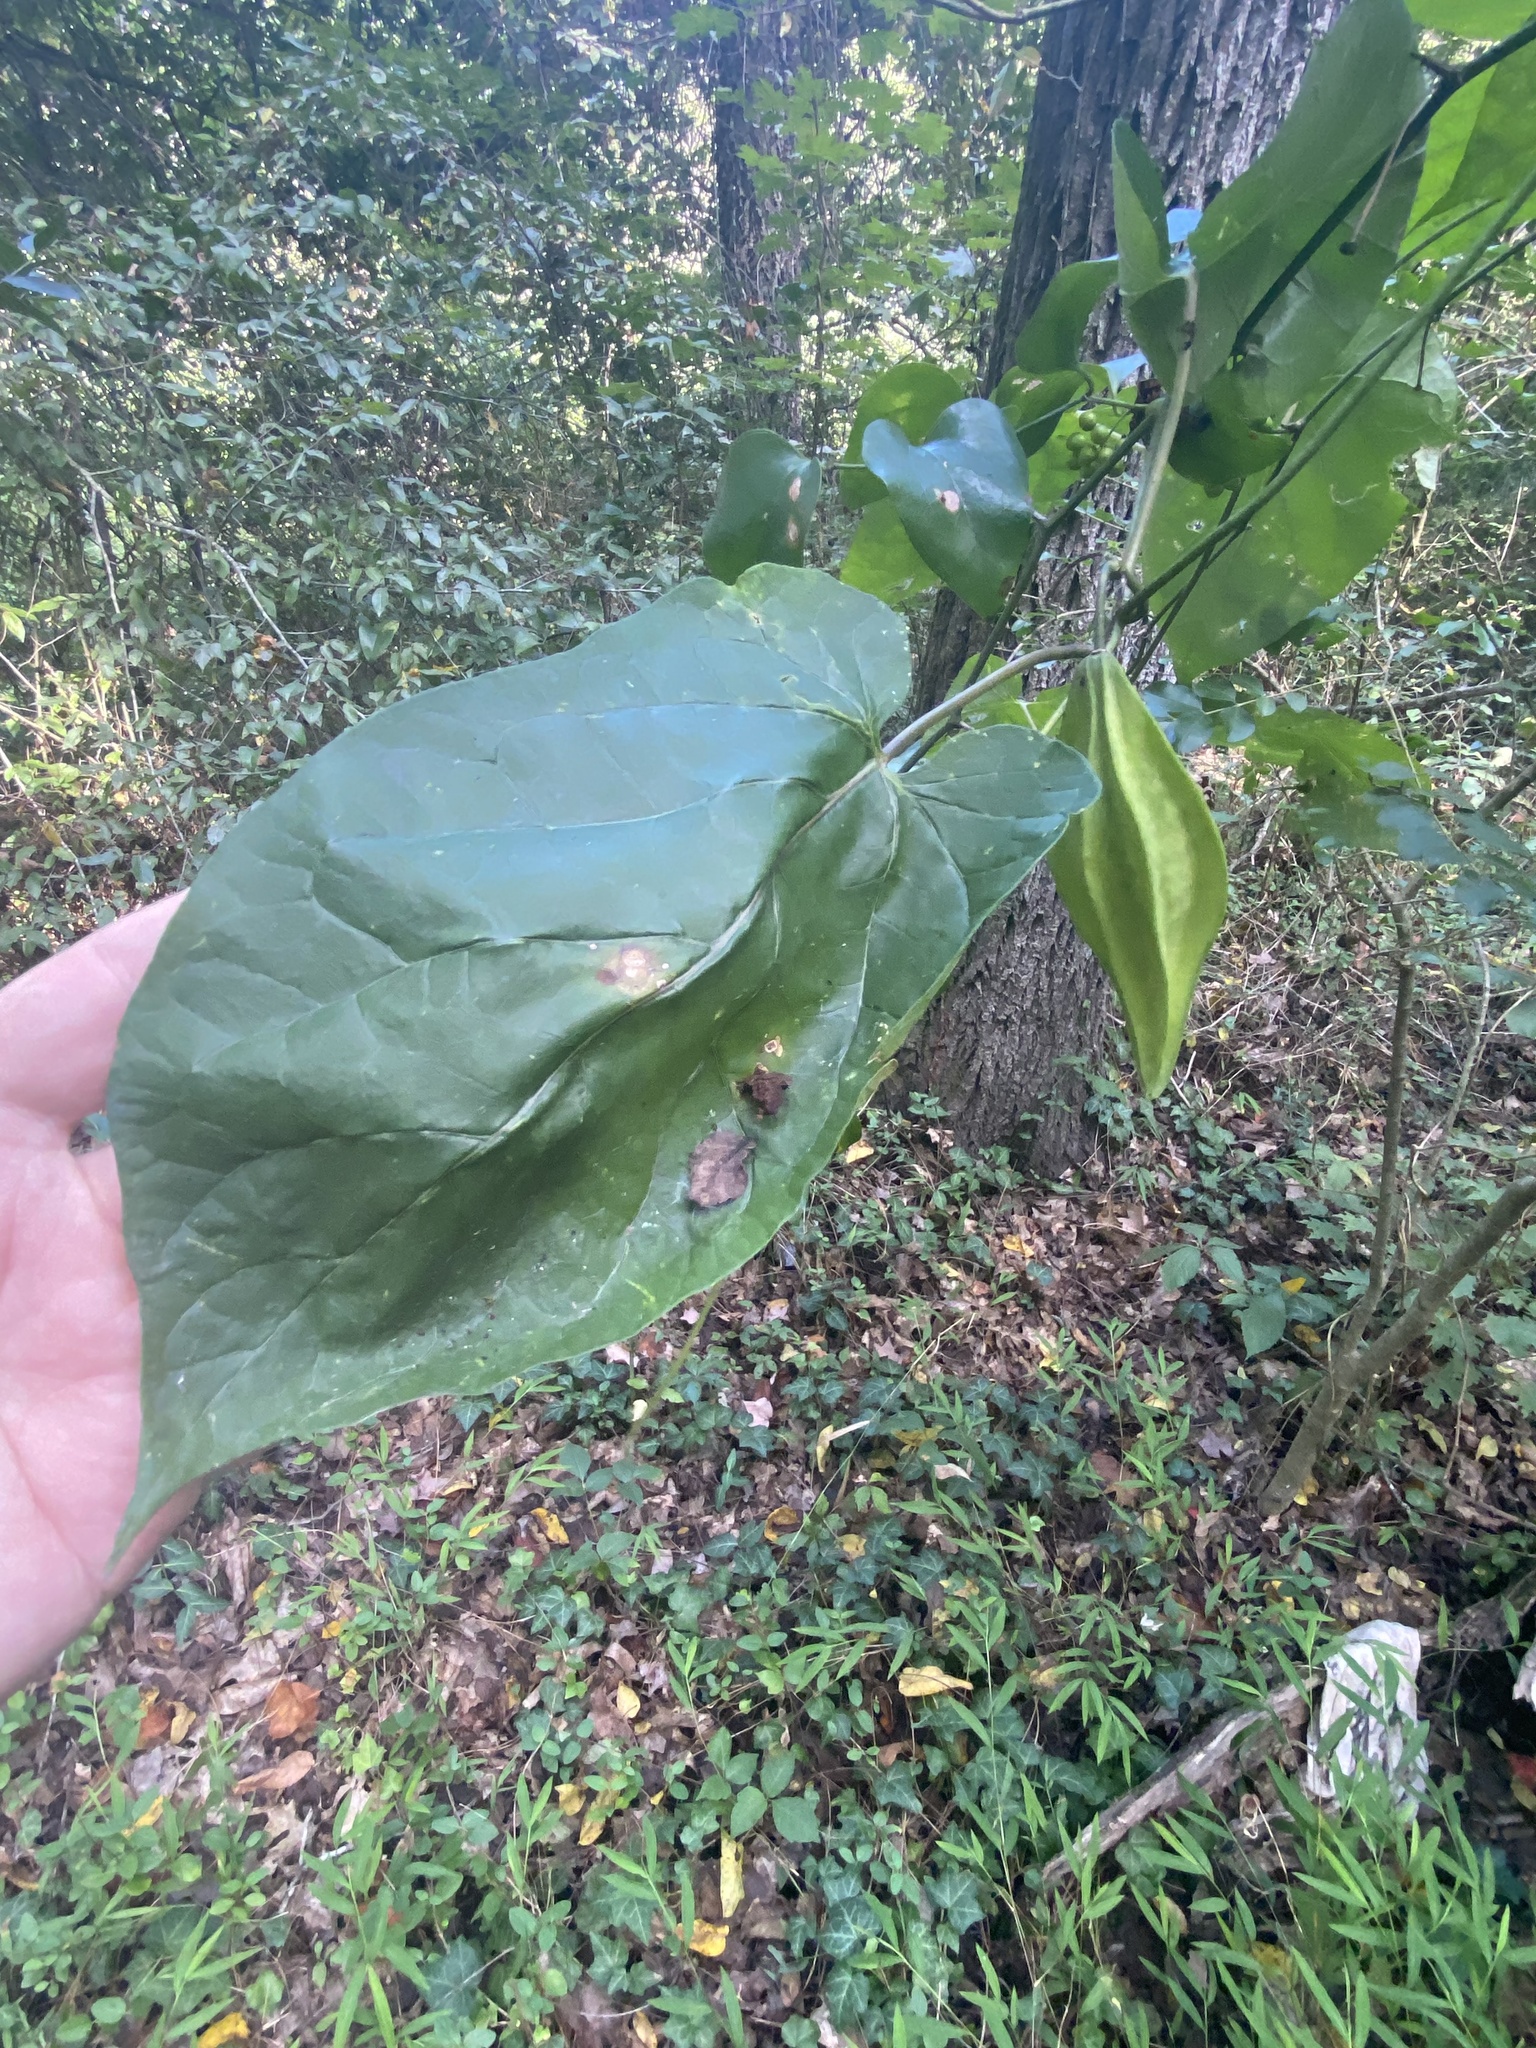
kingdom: Plantae
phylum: Tracheophyta
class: Magnoliopsida
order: Gentianales
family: Apocynaceae
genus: Gonolobus
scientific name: Gonolobus suberosus
